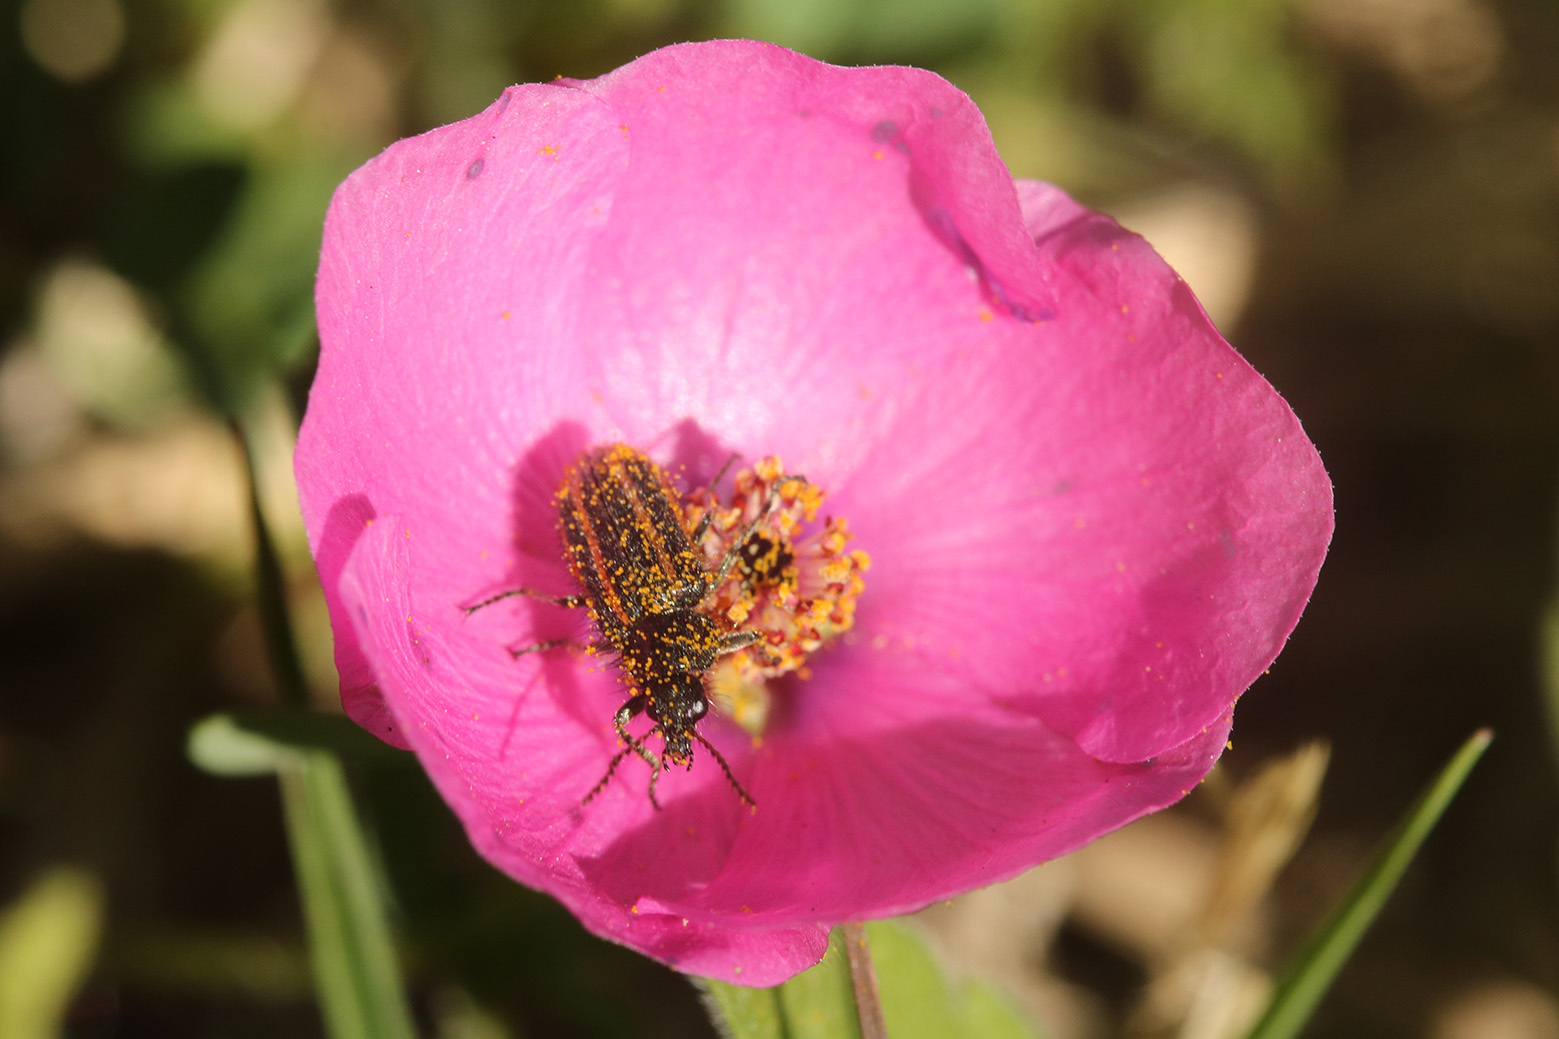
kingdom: Animalia
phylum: Arthropoda
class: Insecta
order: Coleoptera
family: Melyridae
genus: Astylus
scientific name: Astylus
